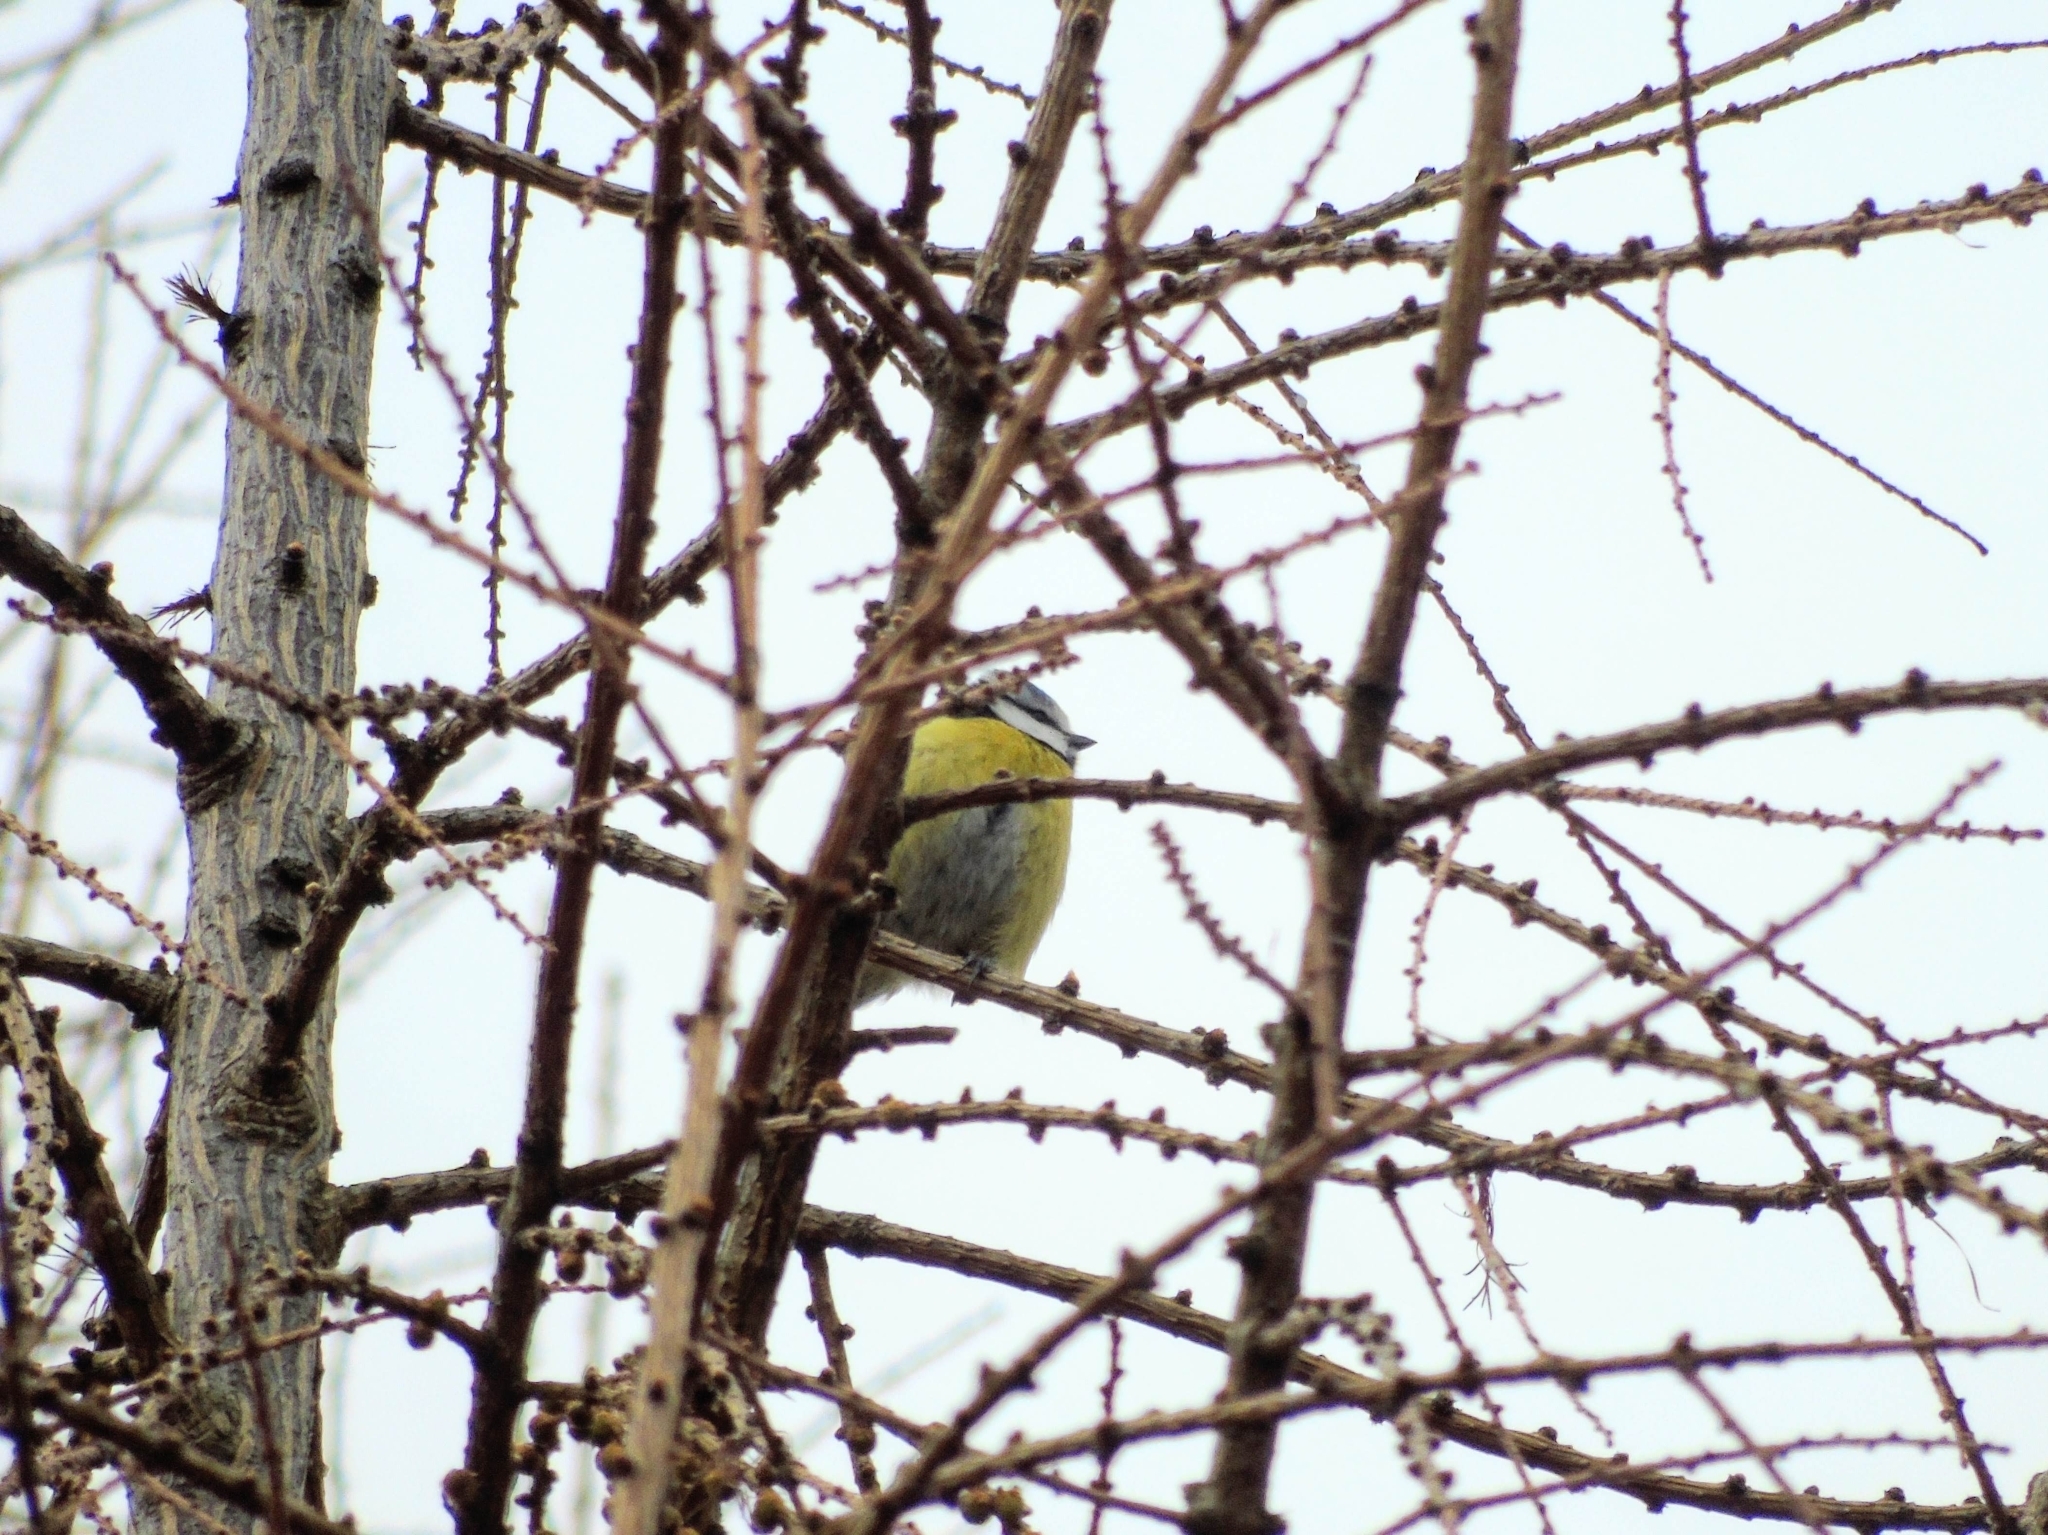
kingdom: Animalia
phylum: Chordata
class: Aves
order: Passeriformes
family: Paridae
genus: Cyanistes
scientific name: Cyanistes caeruleus
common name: Eurasian blue tit
